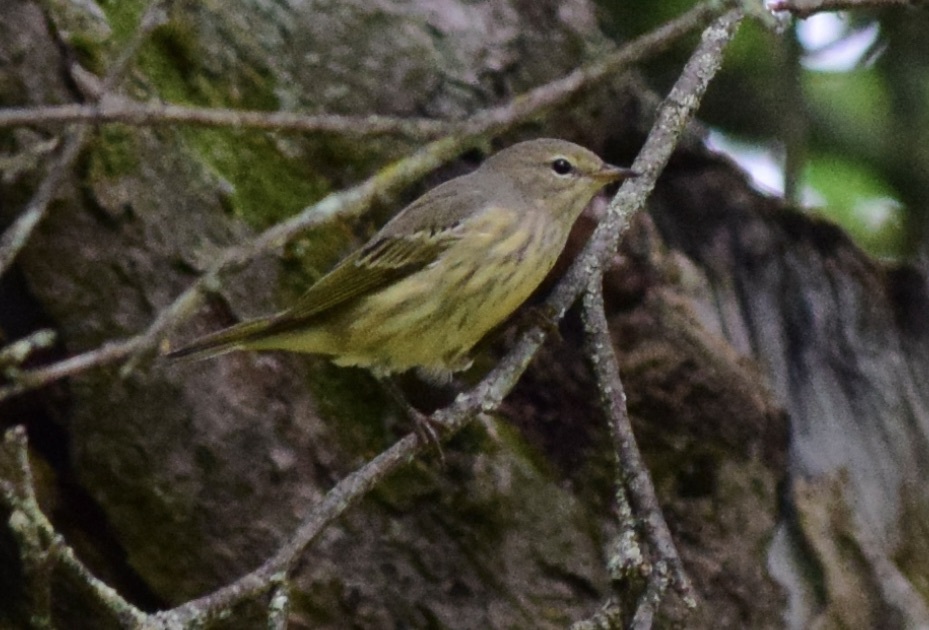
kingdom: Animalia
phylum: Chordata
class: Aves
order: Passeriformes
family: Parulidae
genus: Setophaga
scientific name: Setophaga tigrina
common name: Cape may warbler
